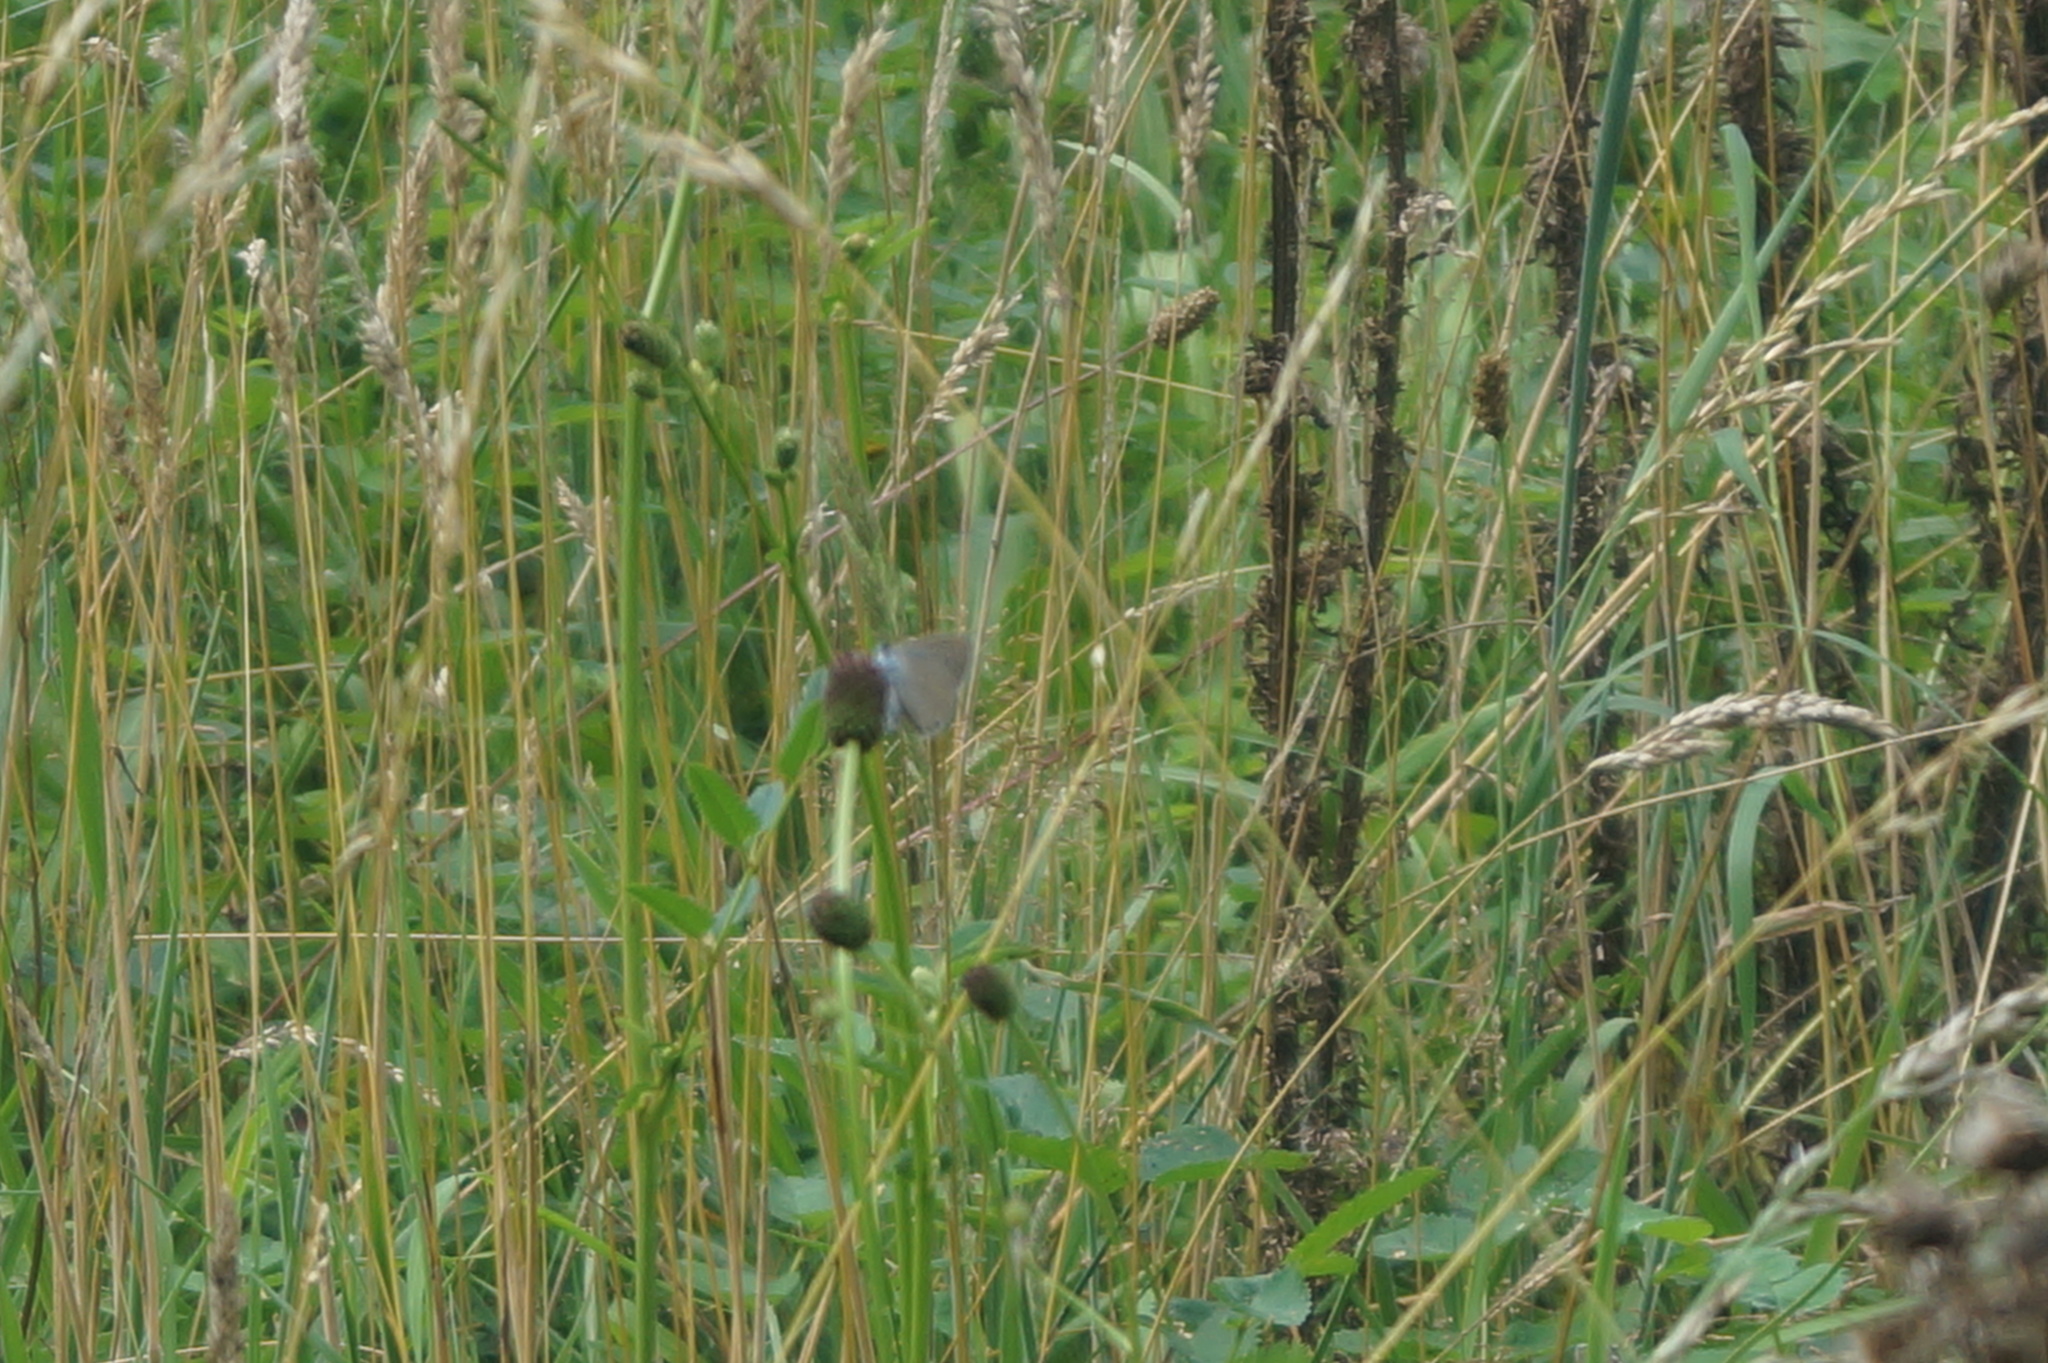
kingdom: Animalia
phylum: Arthropoda
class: Insecta
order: Lepidoptera
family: Lycaenidae
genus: Phengaris
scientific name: Phengaris teleius
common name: Scarce large blue
